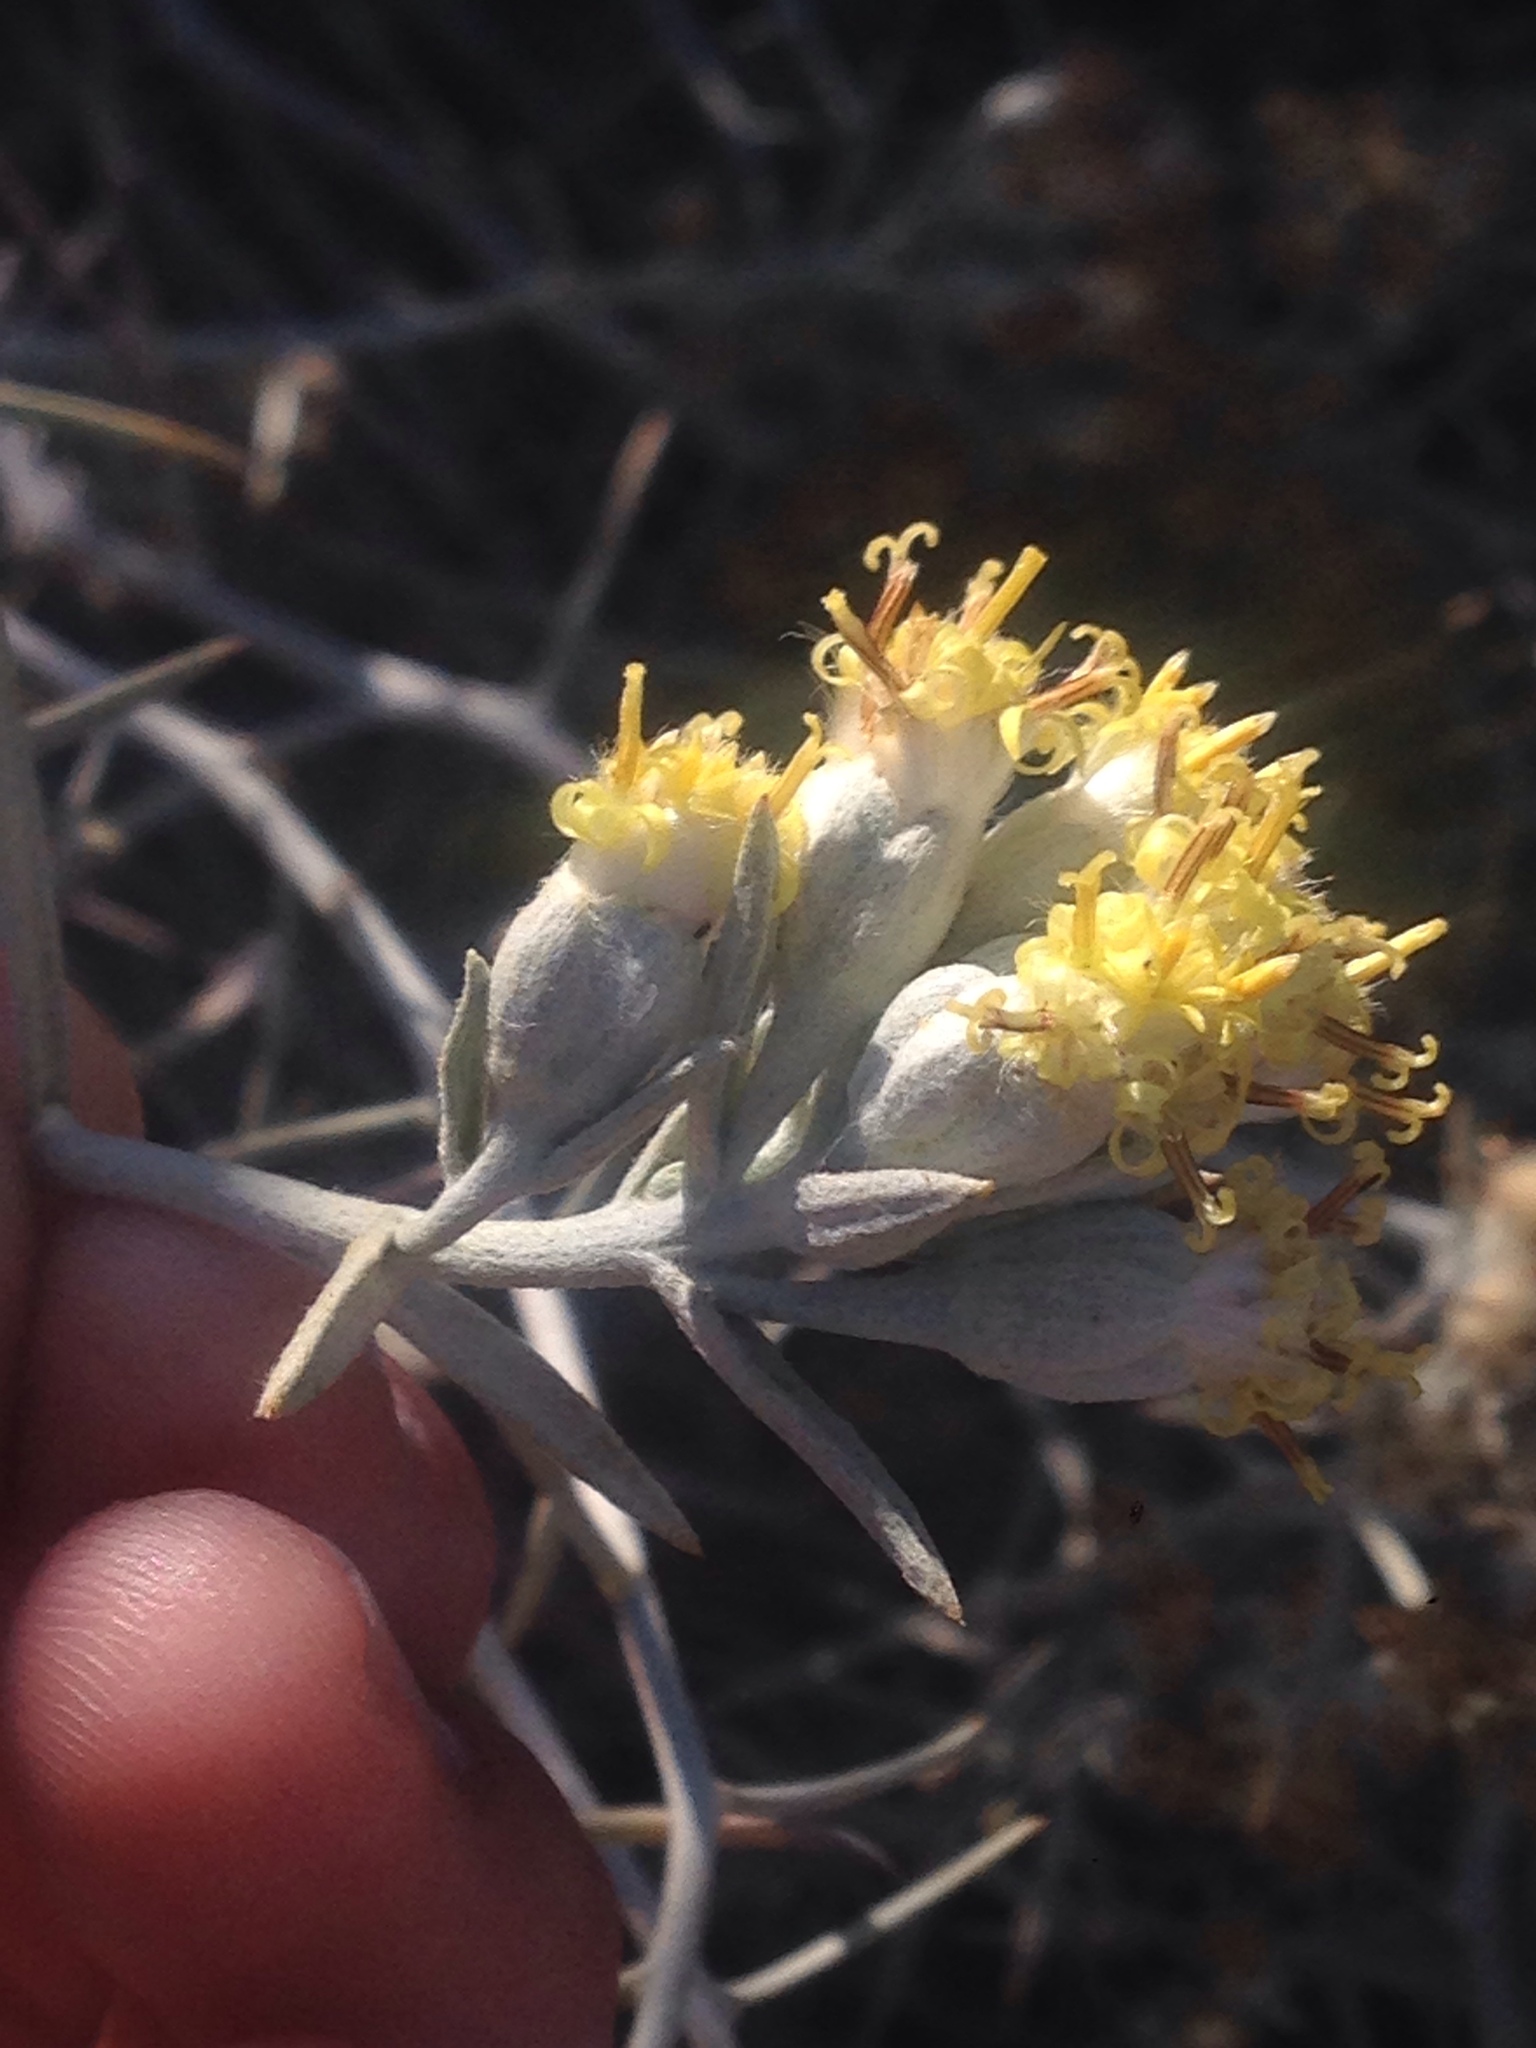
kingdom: Plantae
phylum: Tracheophyta
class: Magnoliopsida
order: Asterales
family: Asteraceae
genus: Tetradymia
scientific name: Tetradymia comosa
